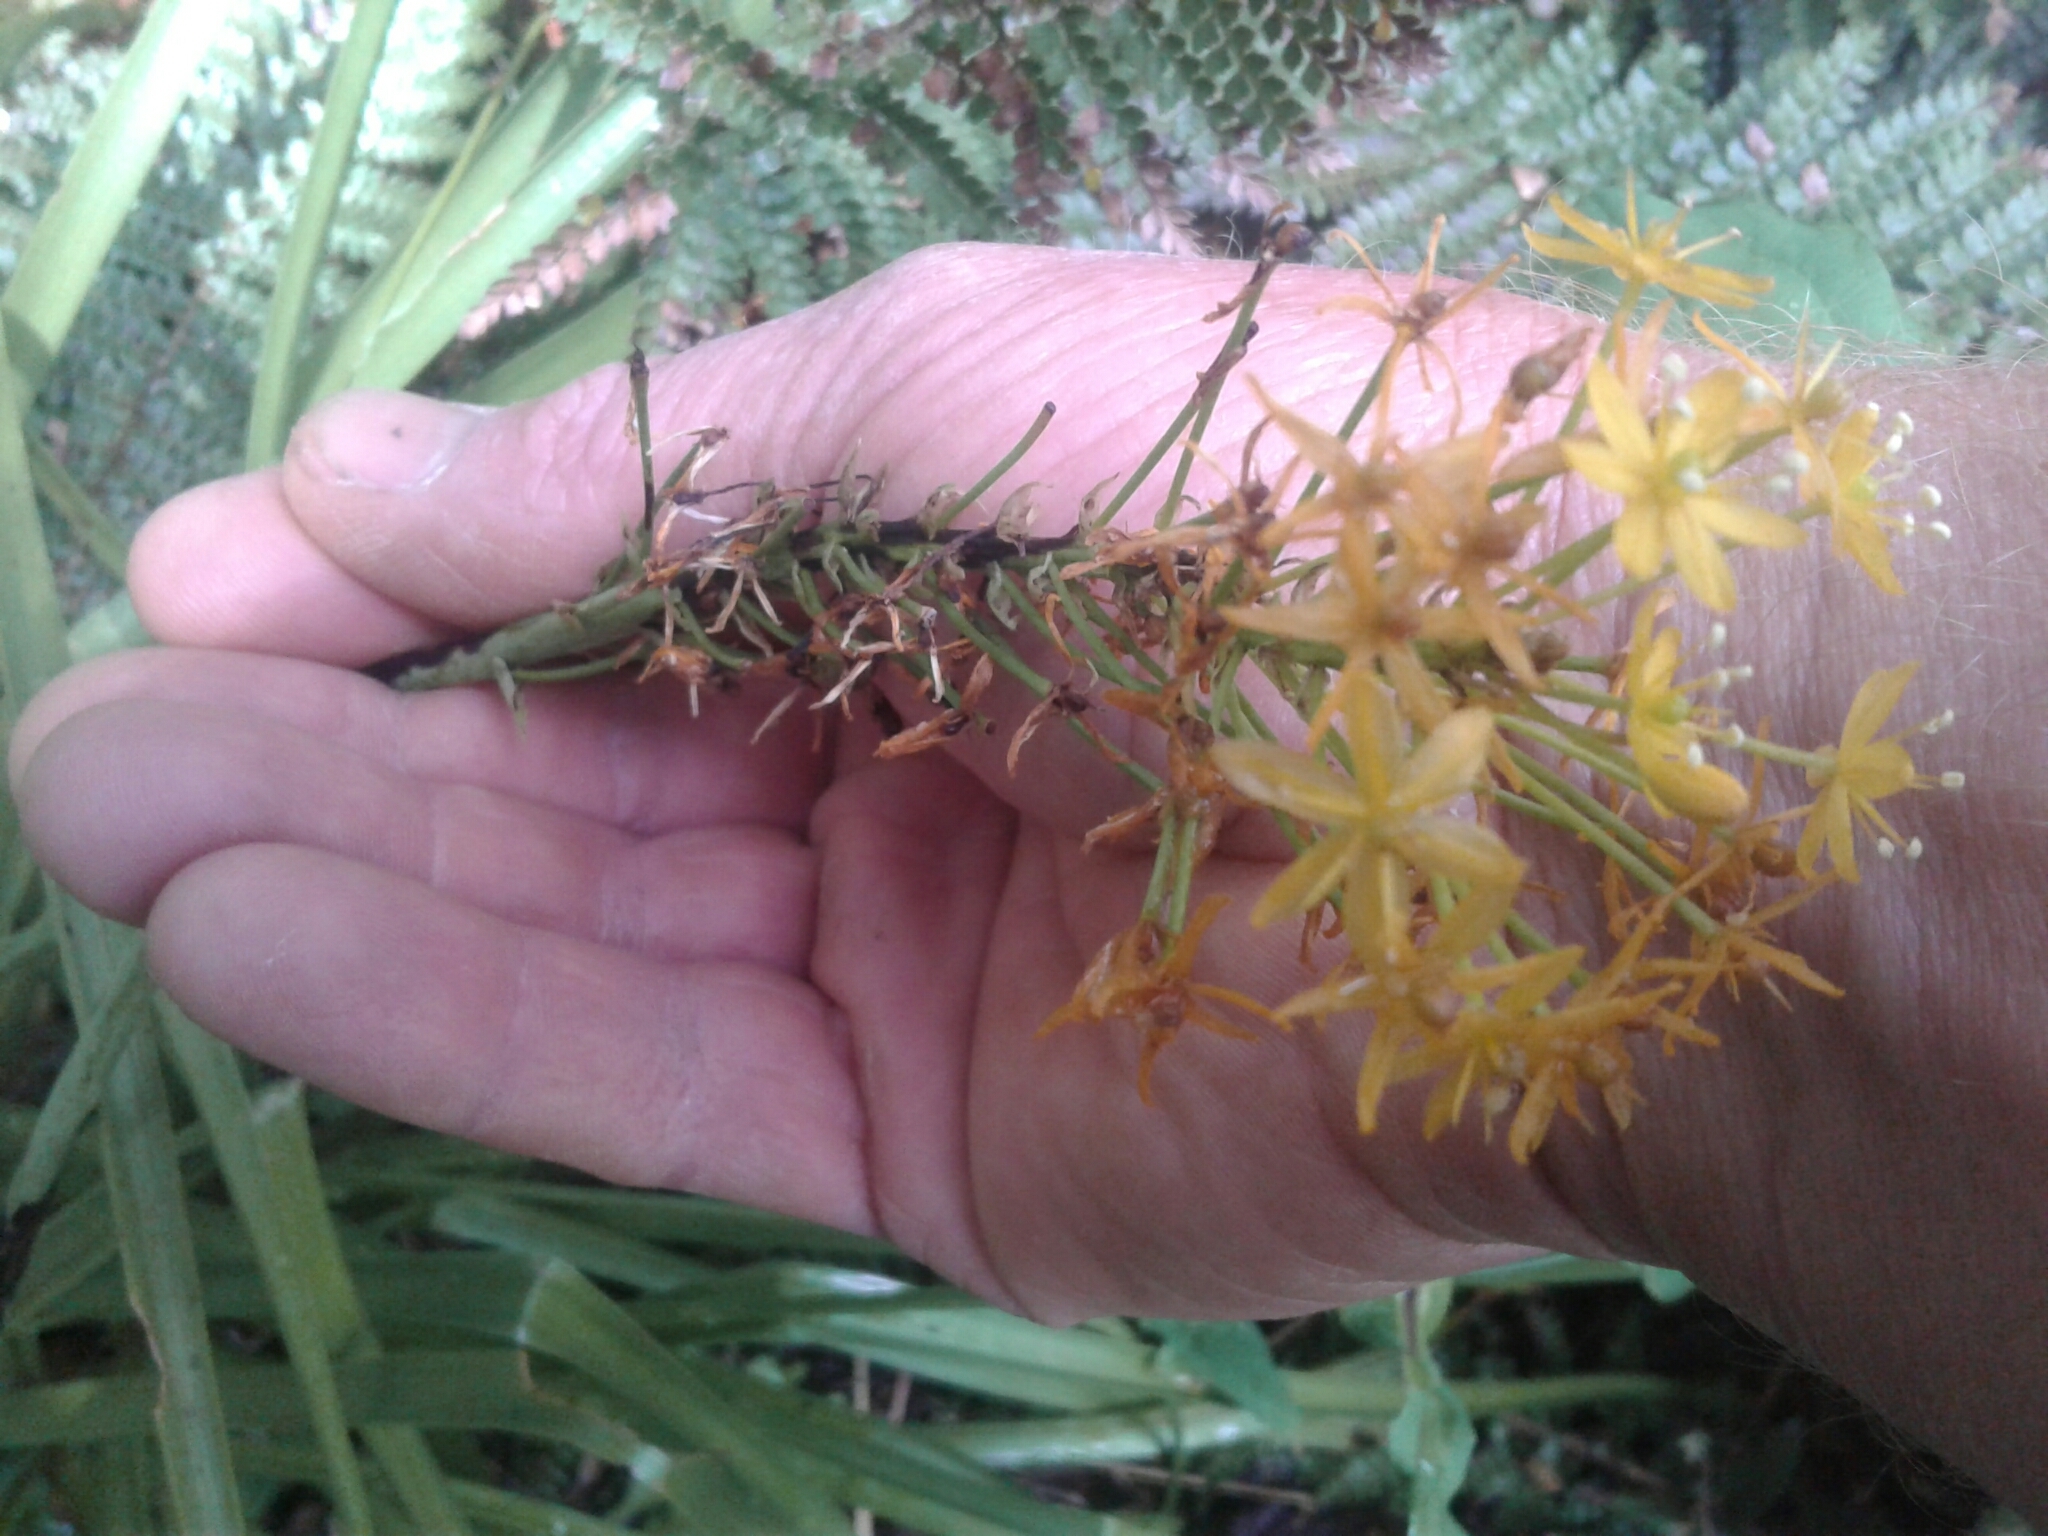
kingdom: Plantae
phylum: Tracheophyta
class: Liliopsida
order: Asparagales
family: Asphodelaceae
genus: Bulbinella
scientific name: Bulbinella hookeri
